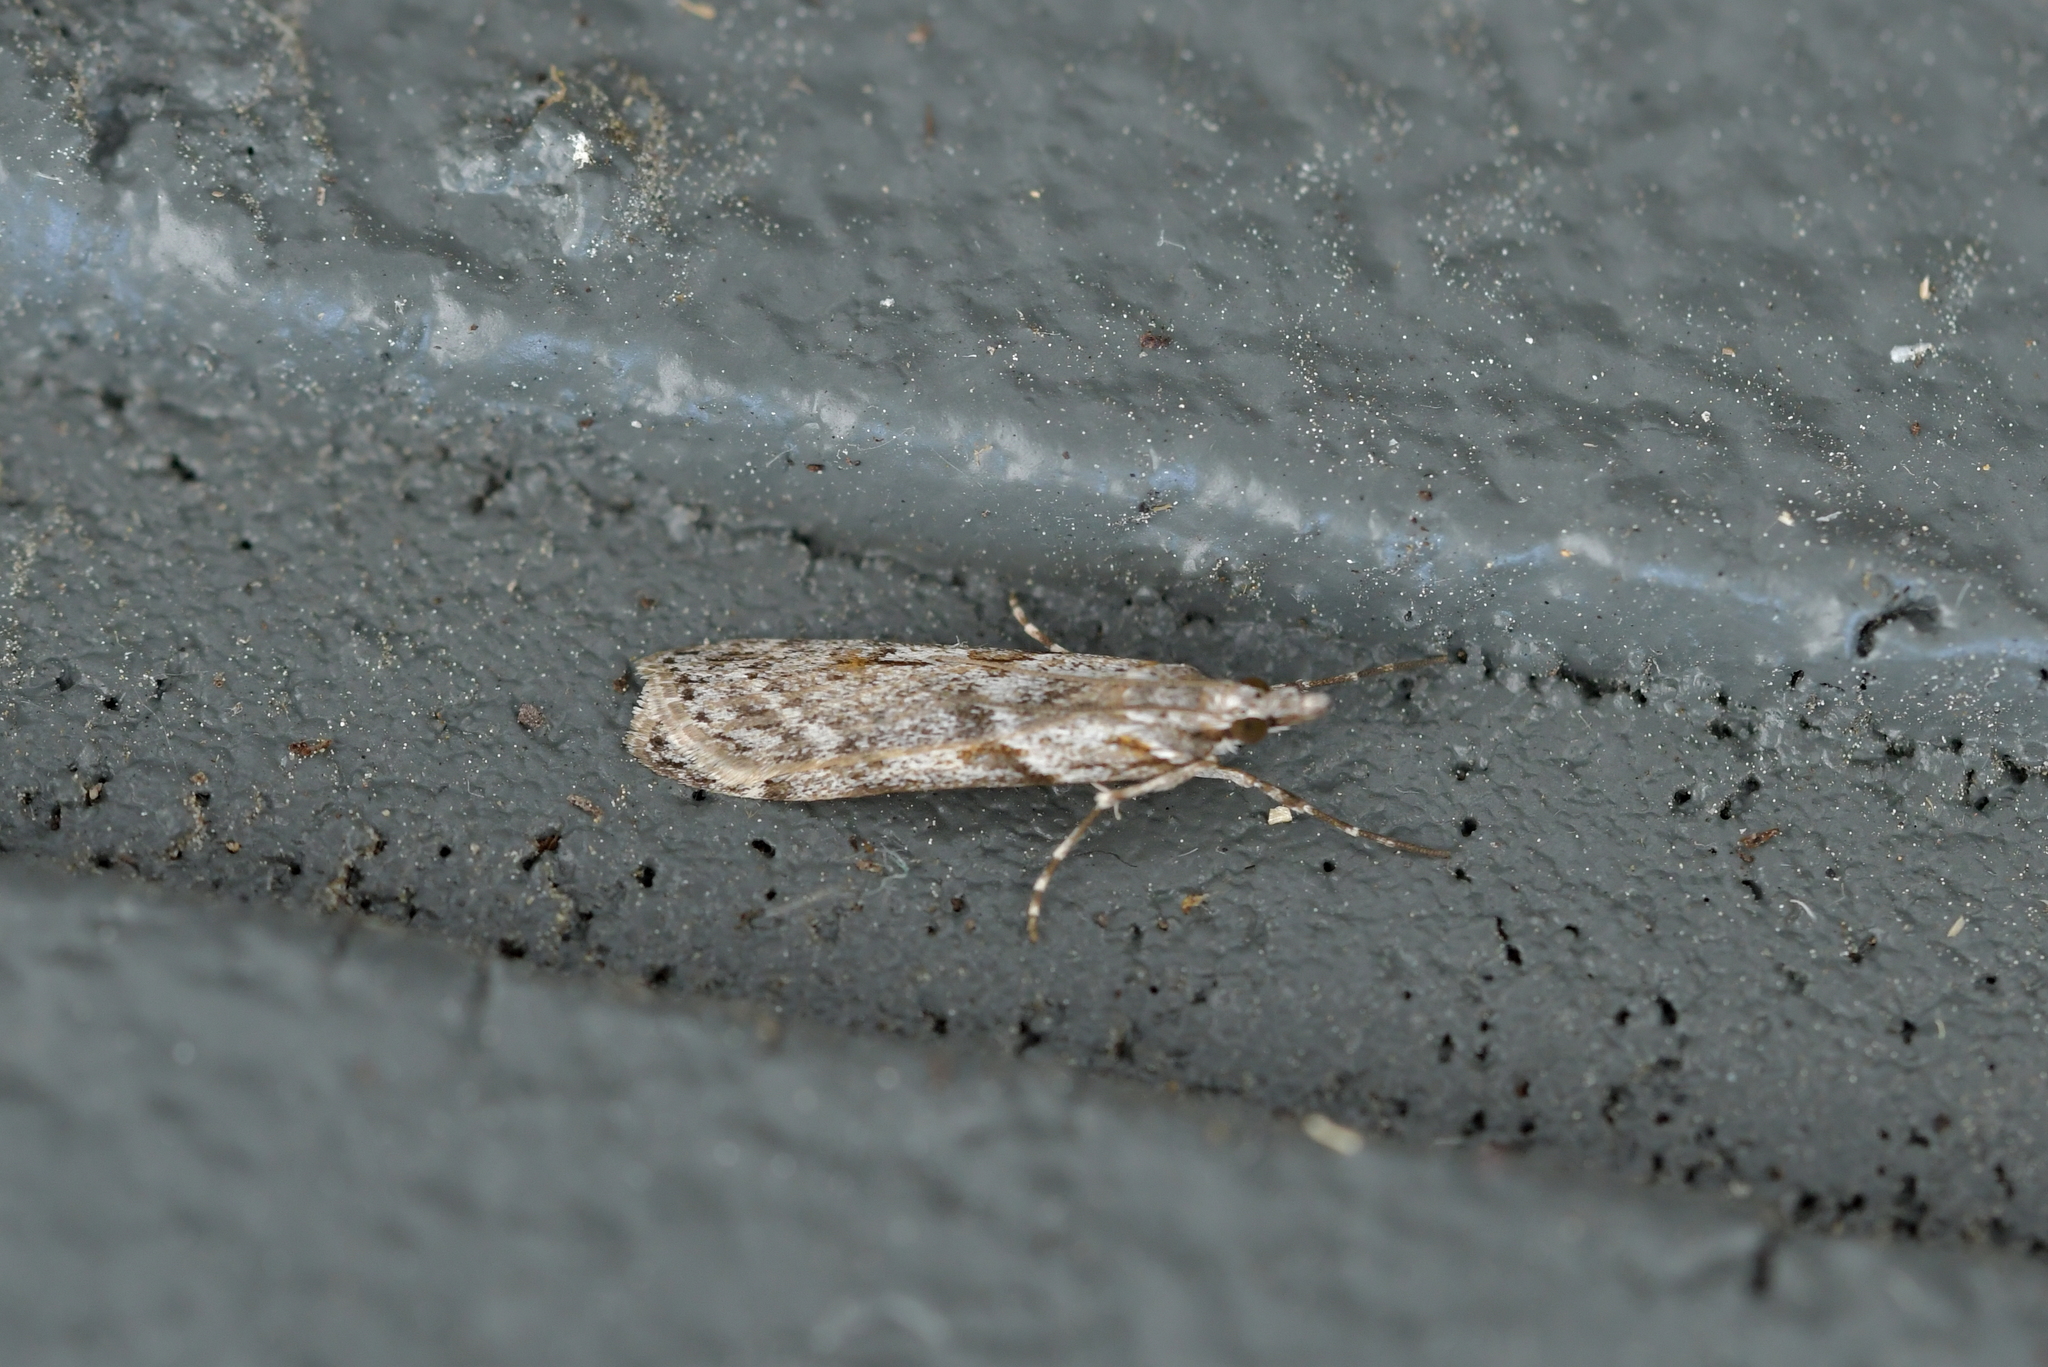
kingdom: Animalia
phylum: Arthropoda
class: Insecta
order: Lepidoptera
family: Crambidae
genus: Scoparia
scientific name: Scoparia halopis
